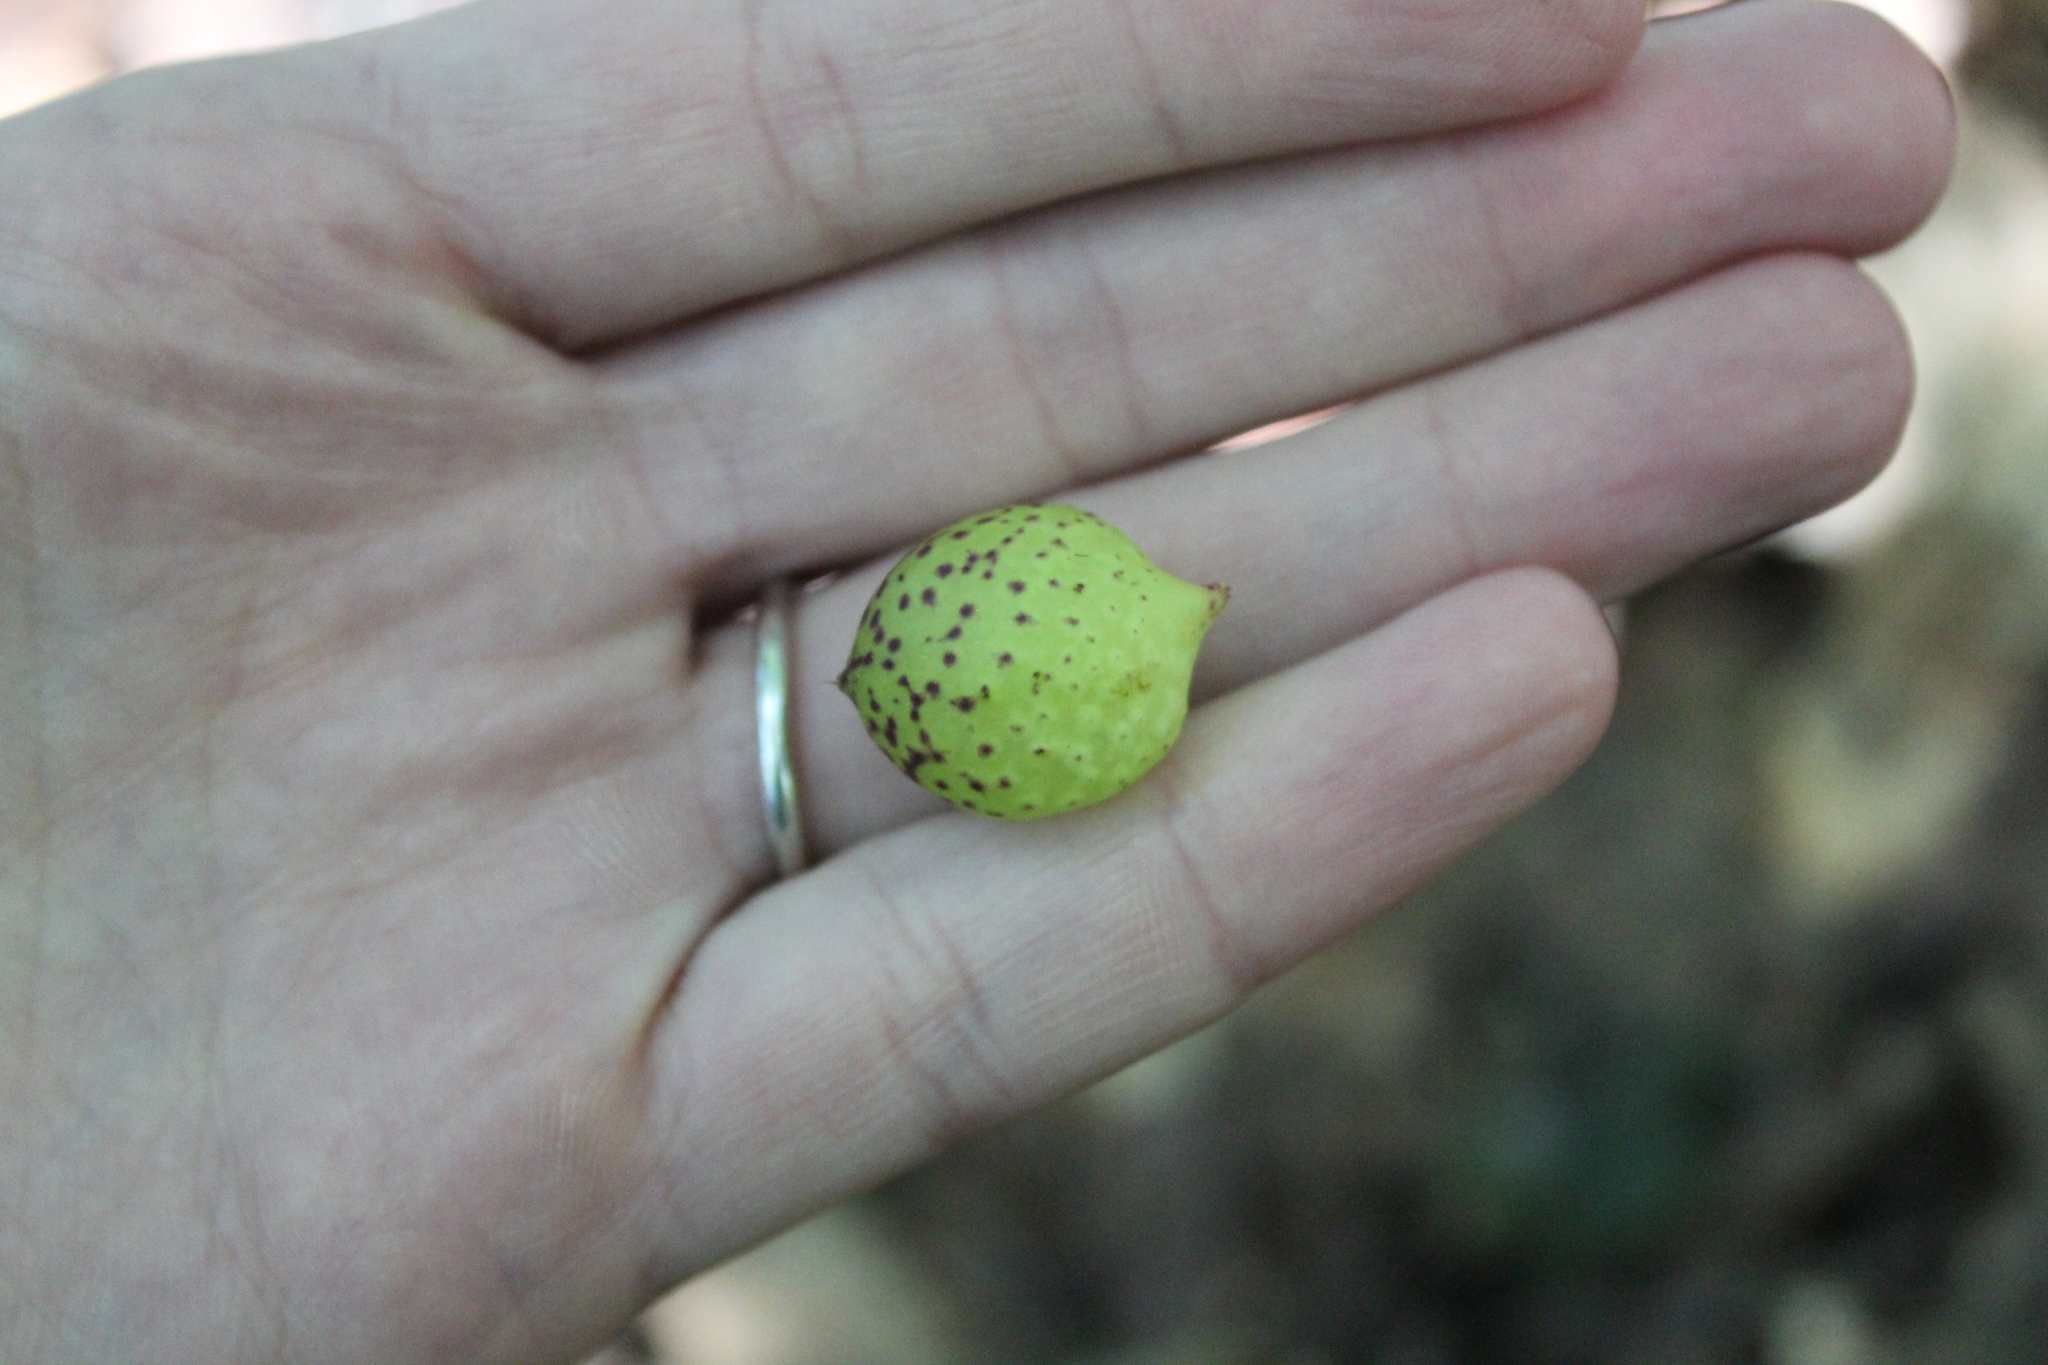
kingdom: Animalia
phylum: Arthropoda
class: Insecta
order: Hymenoptera
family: Cynipidae
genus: Amphibolips
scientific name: Amphibolips
